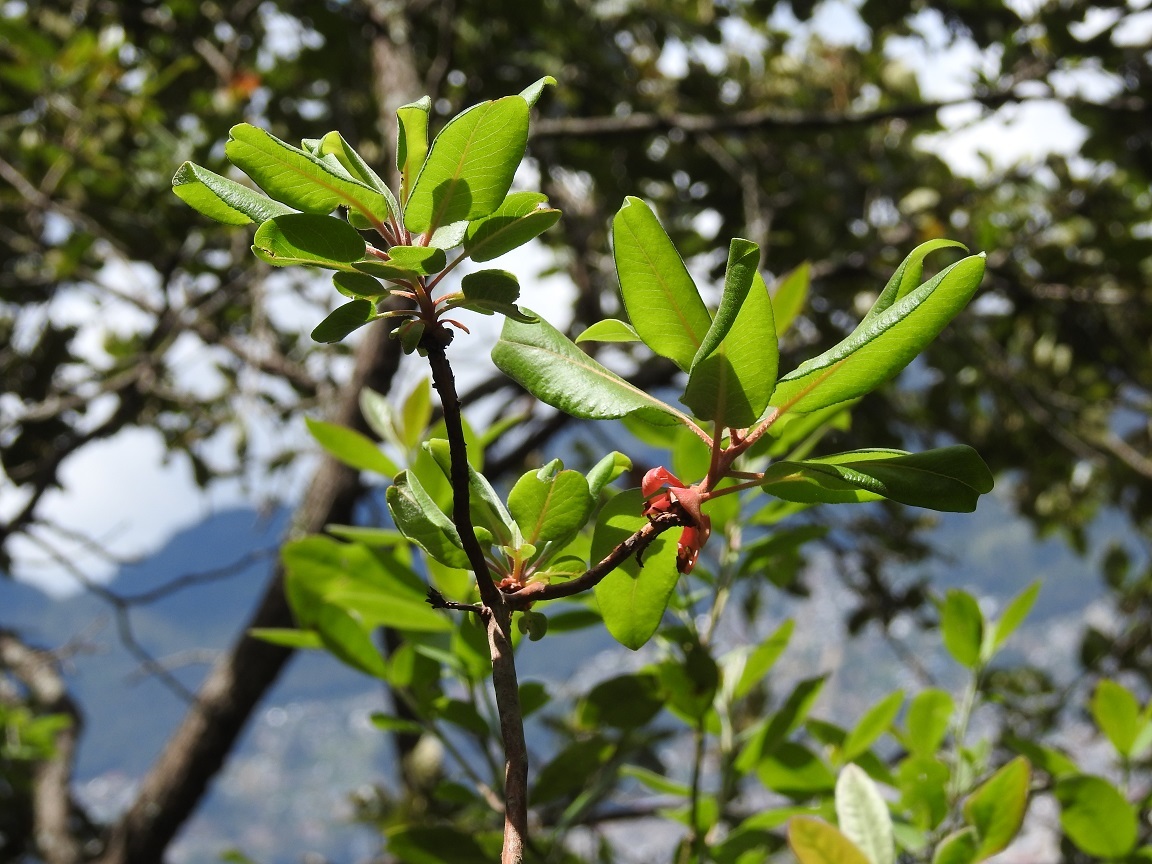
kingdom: Plantae
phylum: Tracheophyta
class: Magnoliopsida
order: Ericales
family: Ericaceae
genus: Arbutus
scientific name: Arbutus xalapensis
